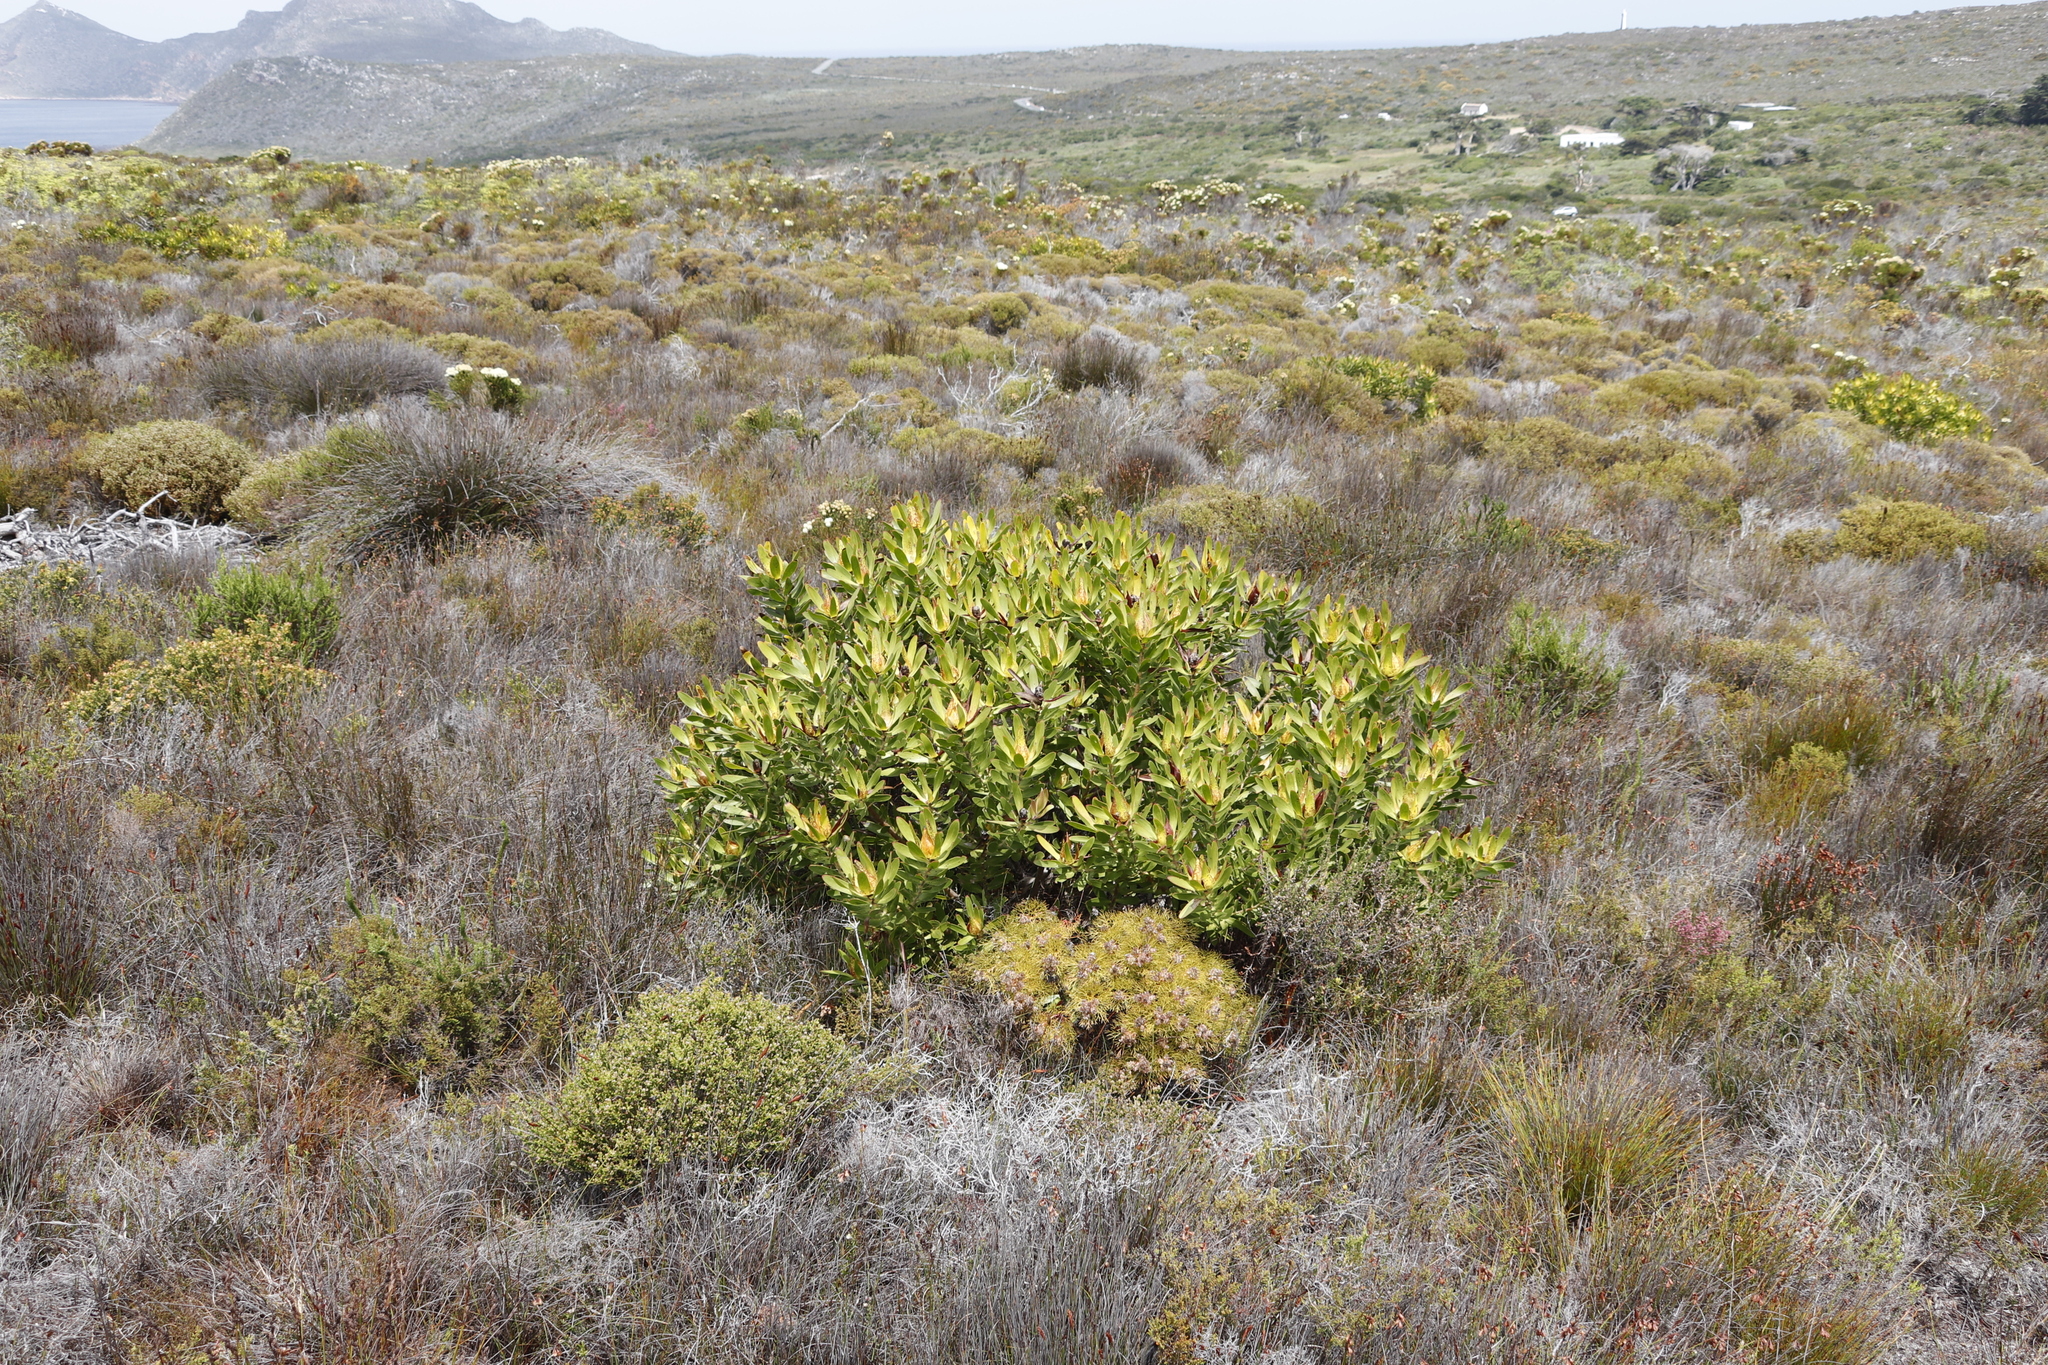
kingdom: Plantae
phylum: Tracheophyta
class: Magnoliopsida
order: Proteales
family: Proteaceae
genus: Serruria
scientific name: Serruria glomerata
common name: Cluster spiderhead
